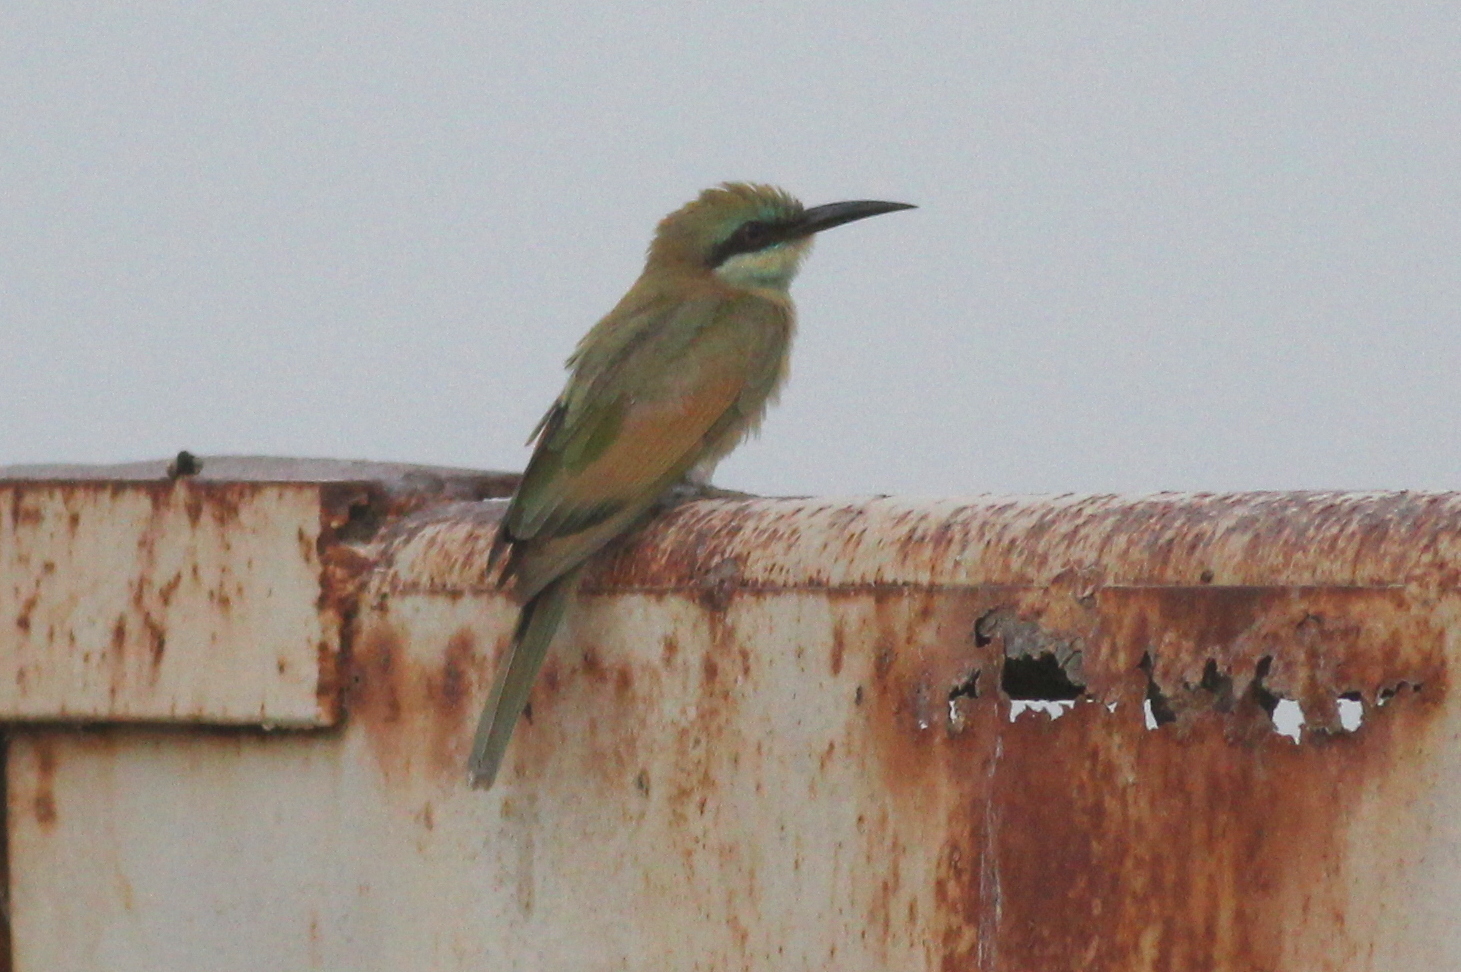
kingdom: Animalia
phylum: Chordata
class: Aves
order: Coraciiformes
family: Meropidae
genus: Merops
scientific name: Merops cyanophrys
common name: Arabian green bee-eater
